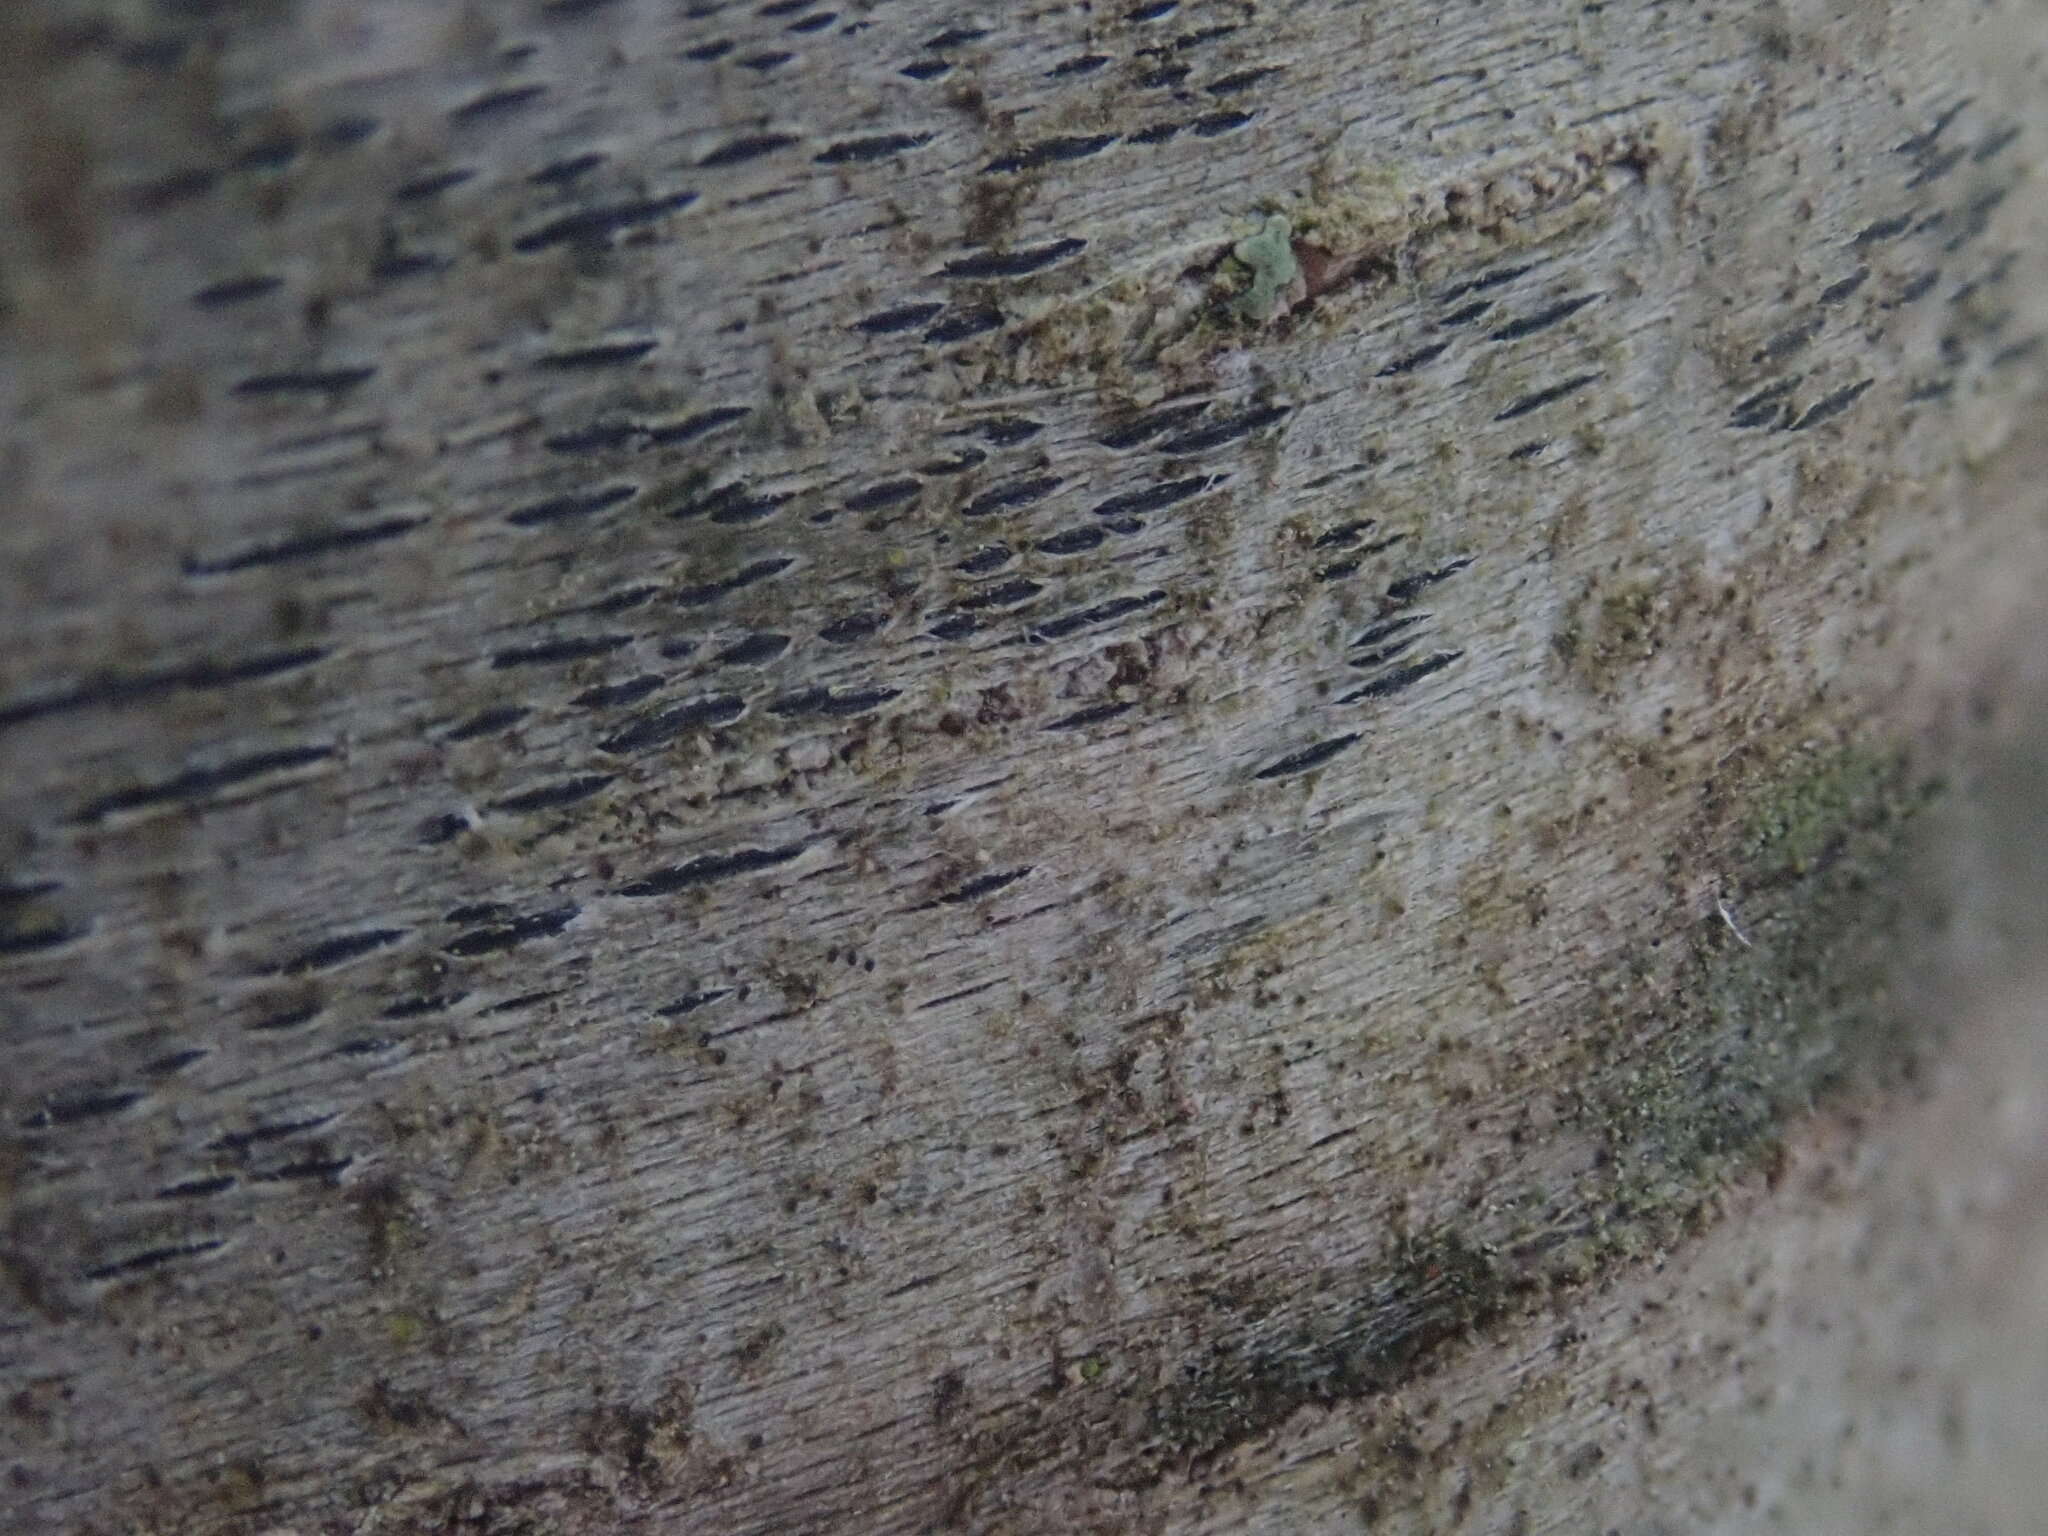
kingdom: Fungi
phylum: Ascomycota
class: Lecanoromycetes
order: Ostropales
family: Graphidaceae
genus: Graphis
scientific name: Graphis scripta
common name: Script lichen
